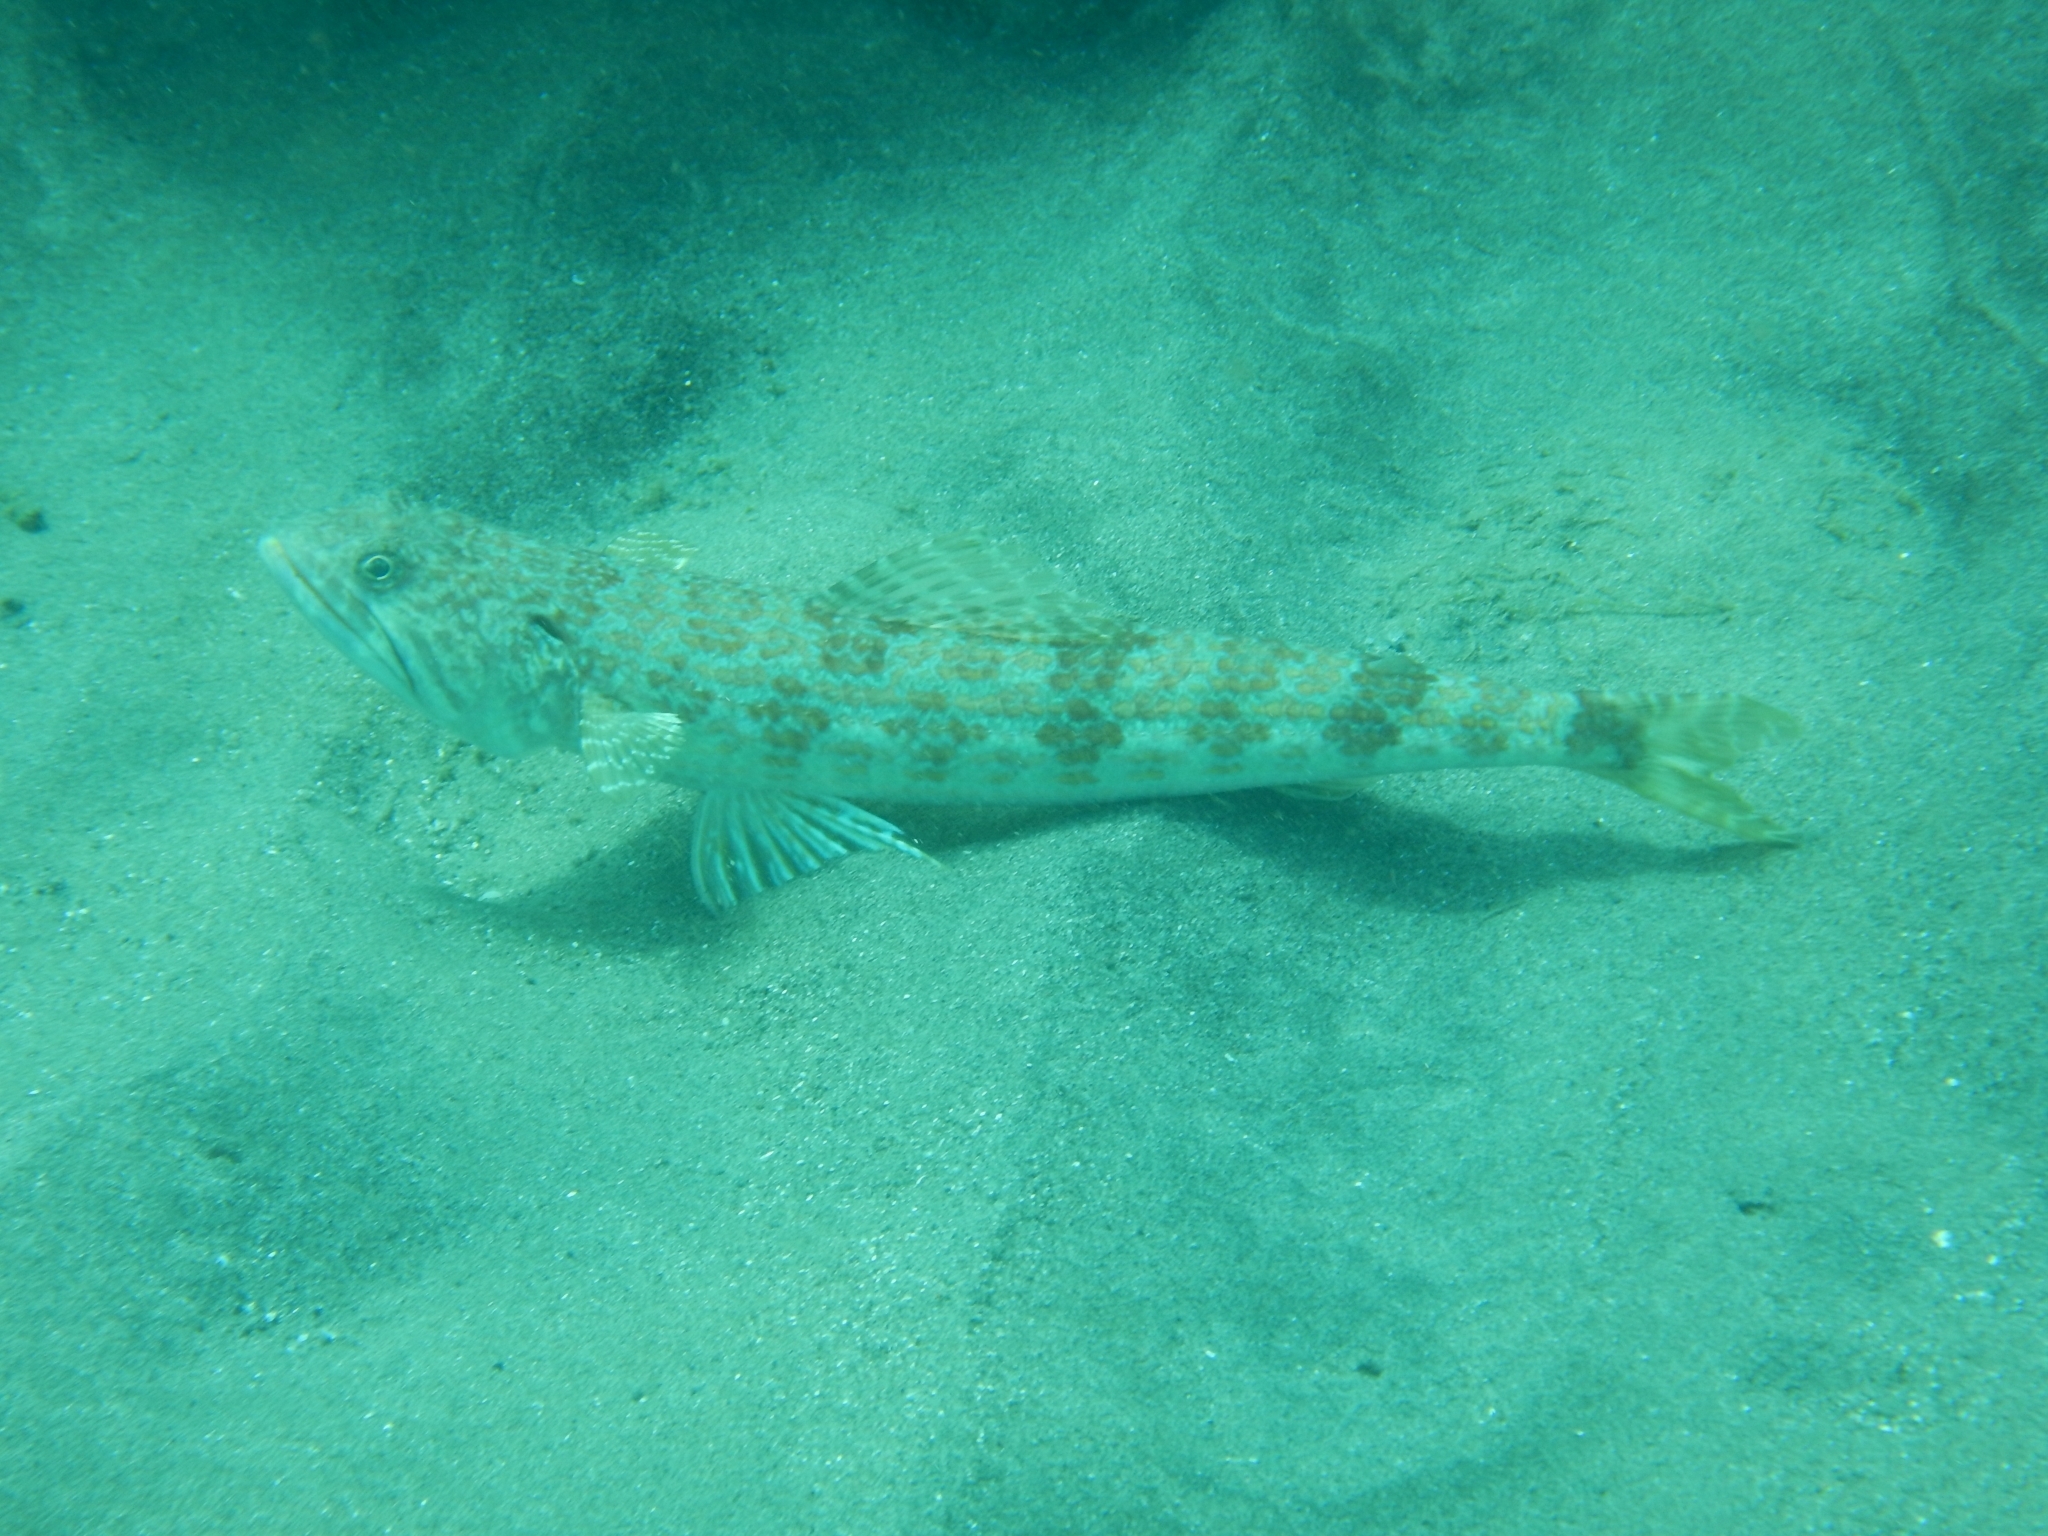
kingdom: Animalia
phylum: Chordata
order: Aulopiformes
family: Synodontidae
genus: Synodus
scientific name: Synodus intermedius
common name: Sand diver
